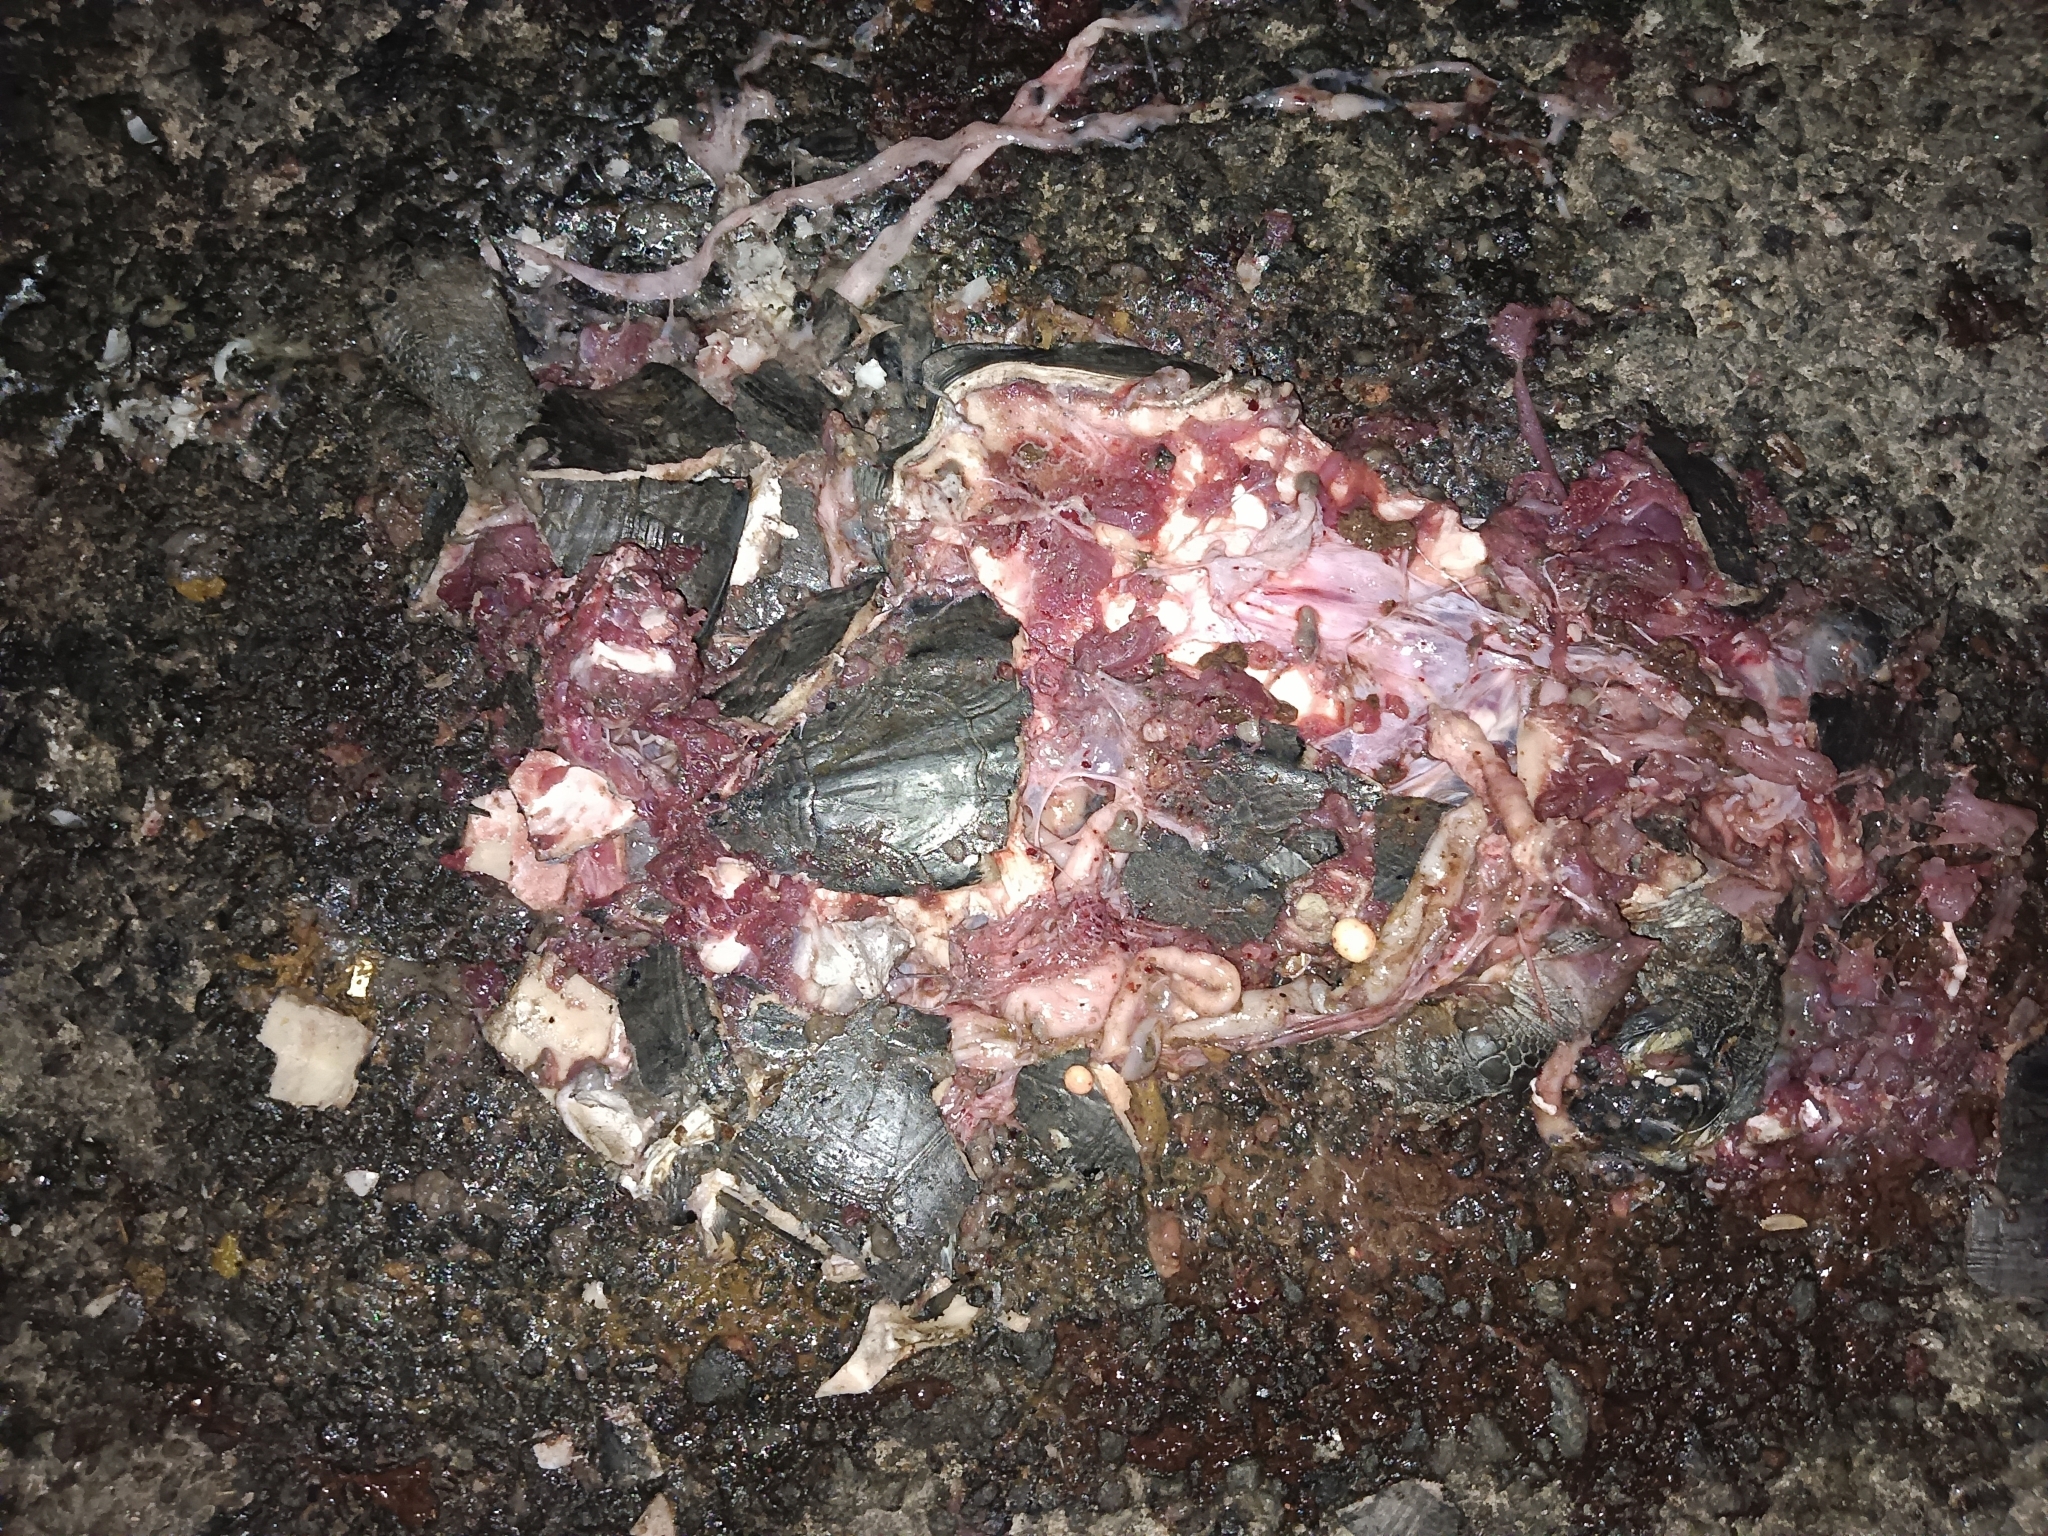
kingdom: Animalia
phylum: Chordata
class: Testudines
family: Geoemydidae
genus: Melanochelys
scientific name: Melanochelys trijuga
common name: Indian black turtle
